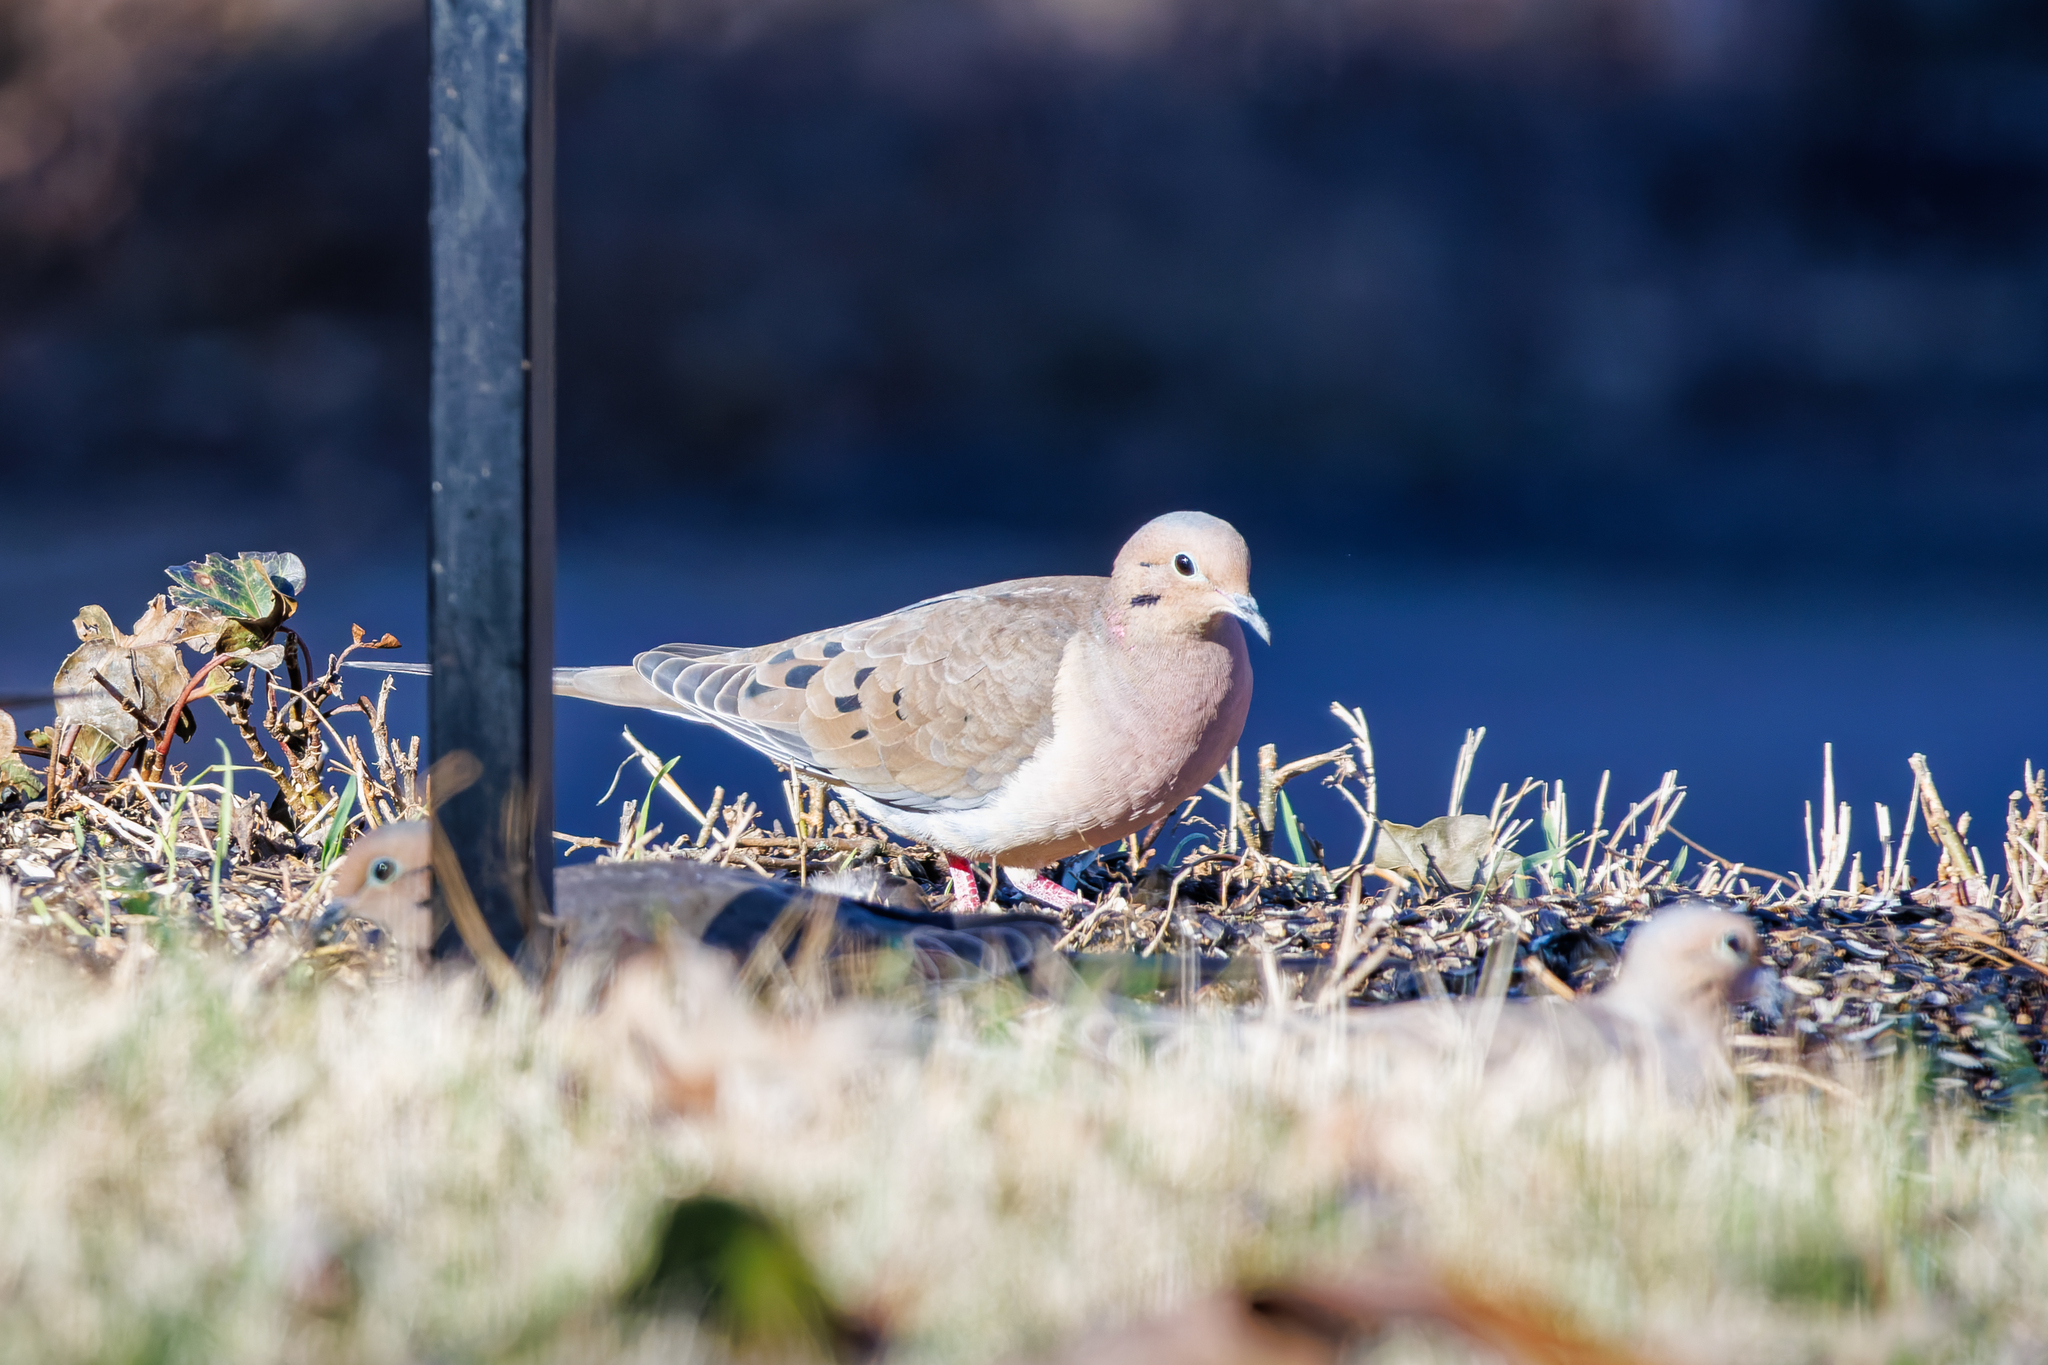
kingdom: Animalia
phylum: Chordata
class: Aves
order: Columbiformes
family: Columbidae
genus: Zenaida
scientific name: Zenaida macroura
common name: Mourning dove
